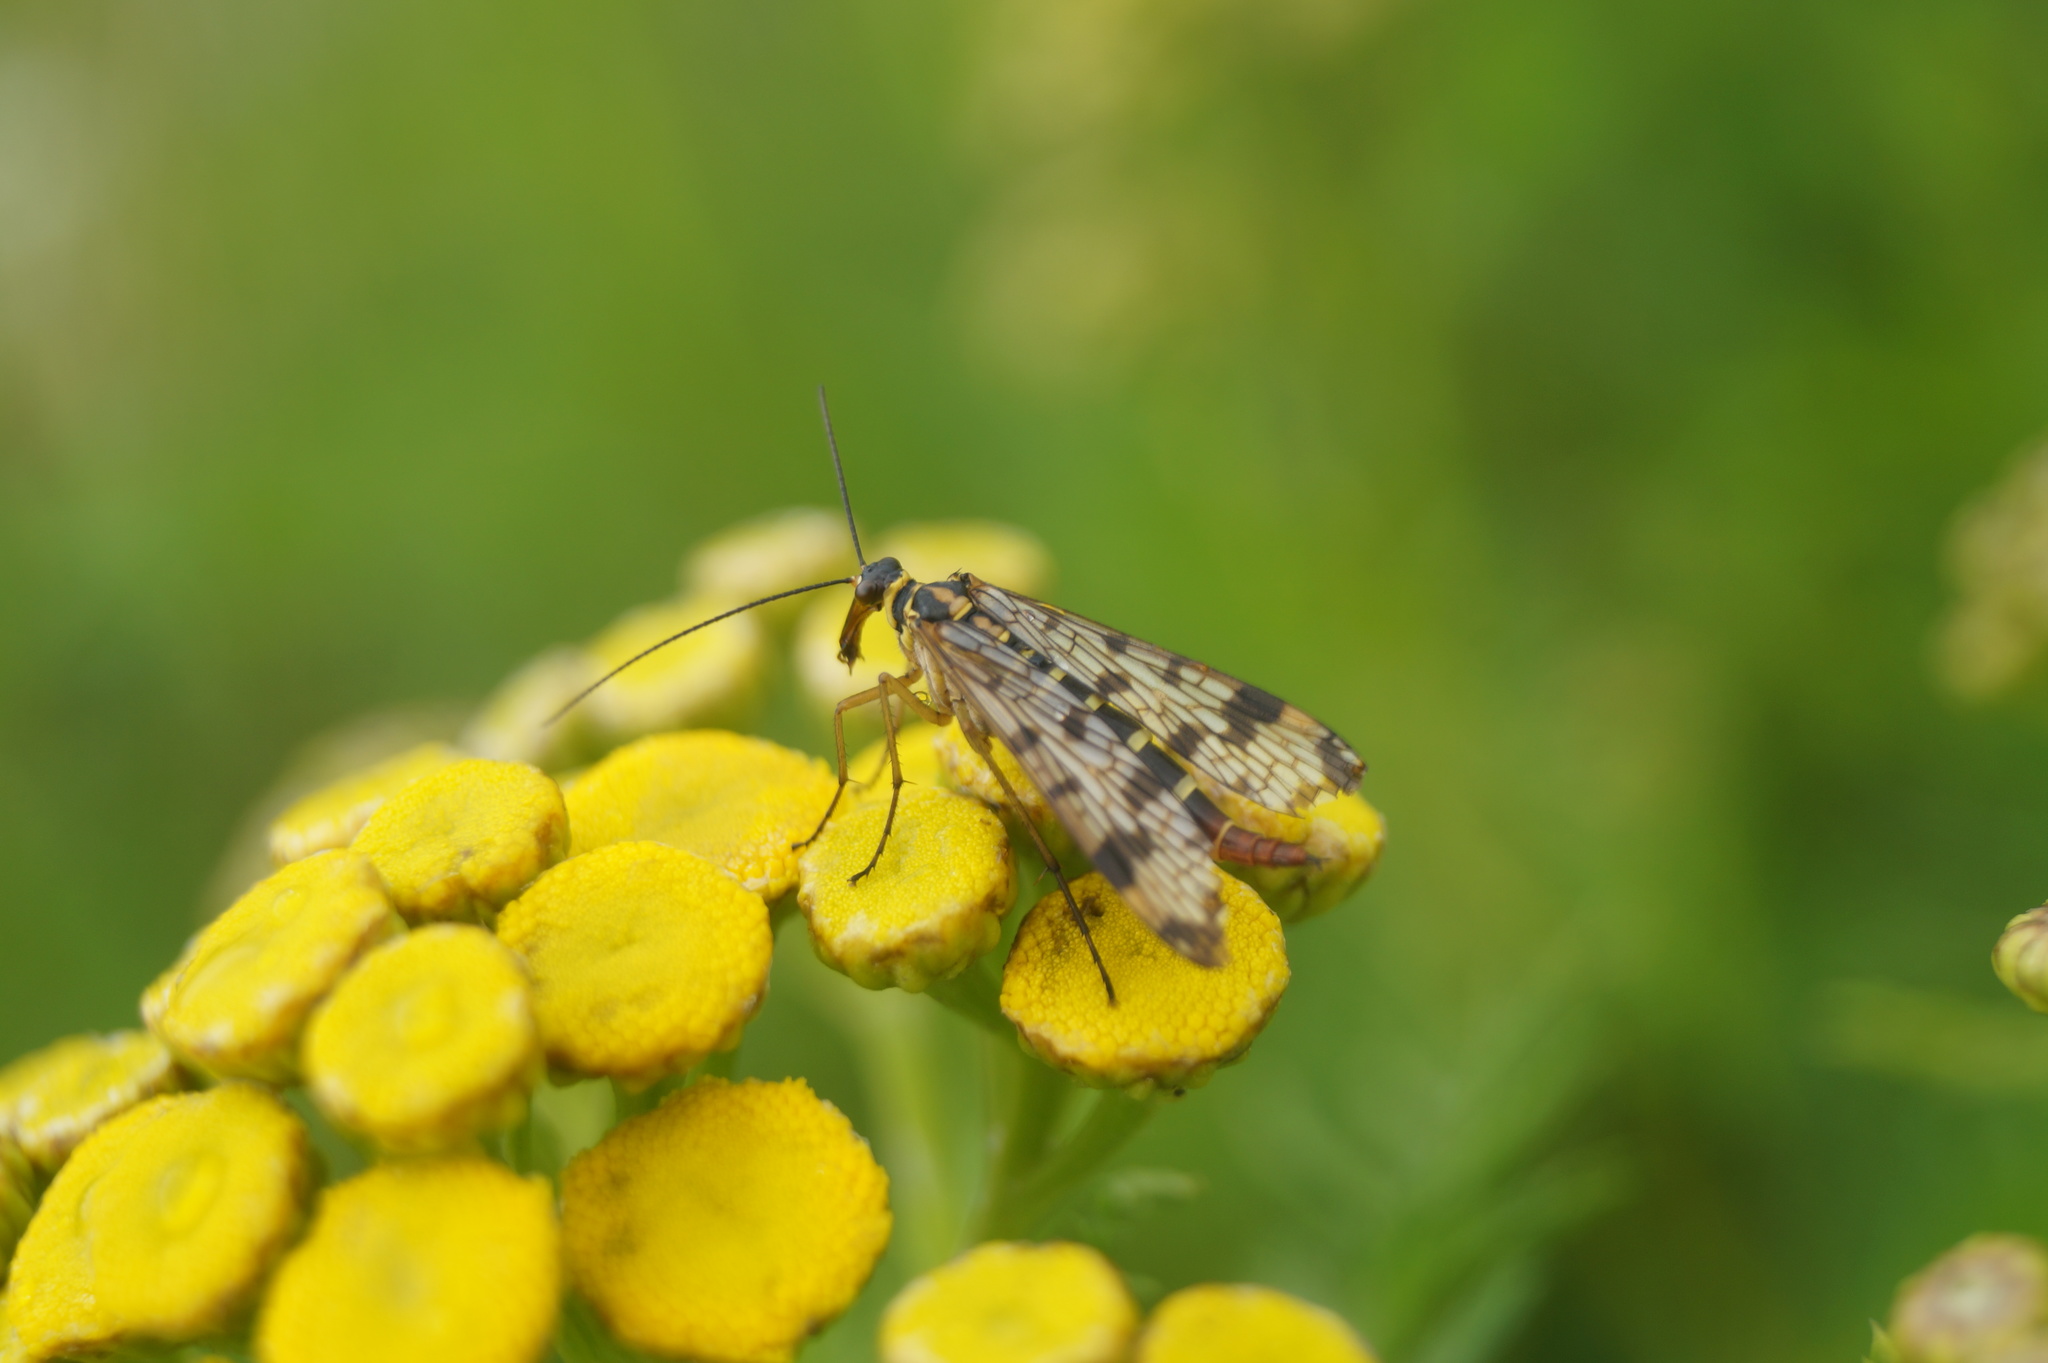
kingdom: Animalia
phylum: Arthropoda
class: Insecta
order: Mecoptera
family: Panorpidae
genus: Panorpa
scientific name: Panorpa communis
